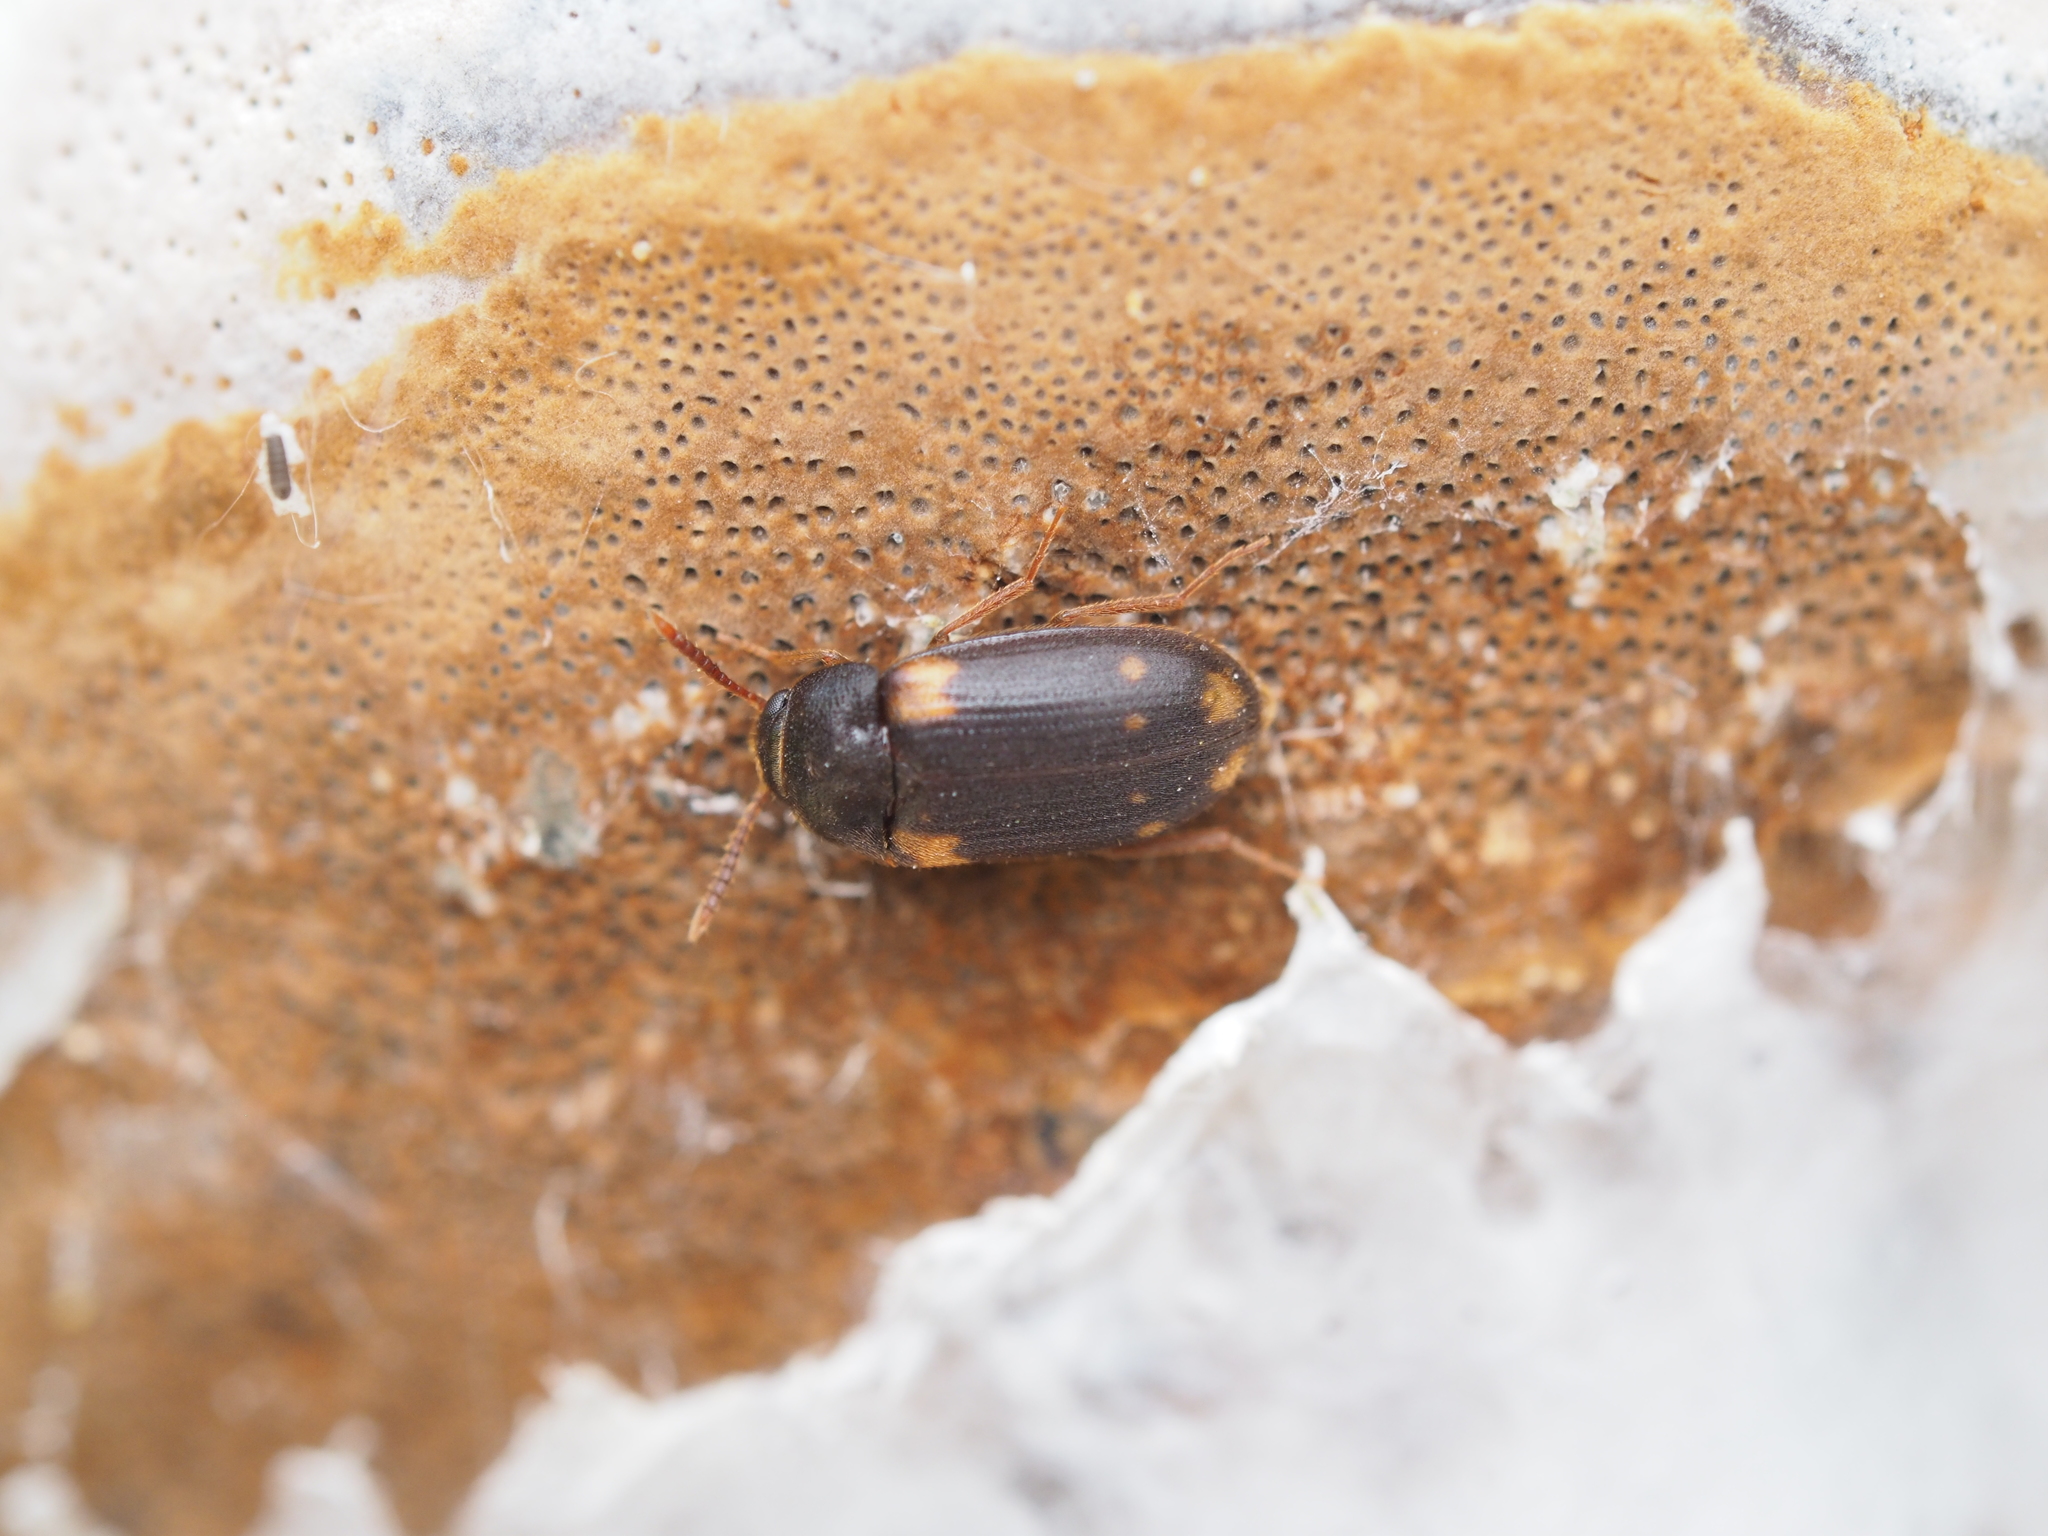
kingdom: Animalia
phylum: Arthropoda
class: Insecta
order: Coleoptera
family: Mycetophagidae
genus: Mycetophagus
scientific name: Mycetophagus decempunctatus
